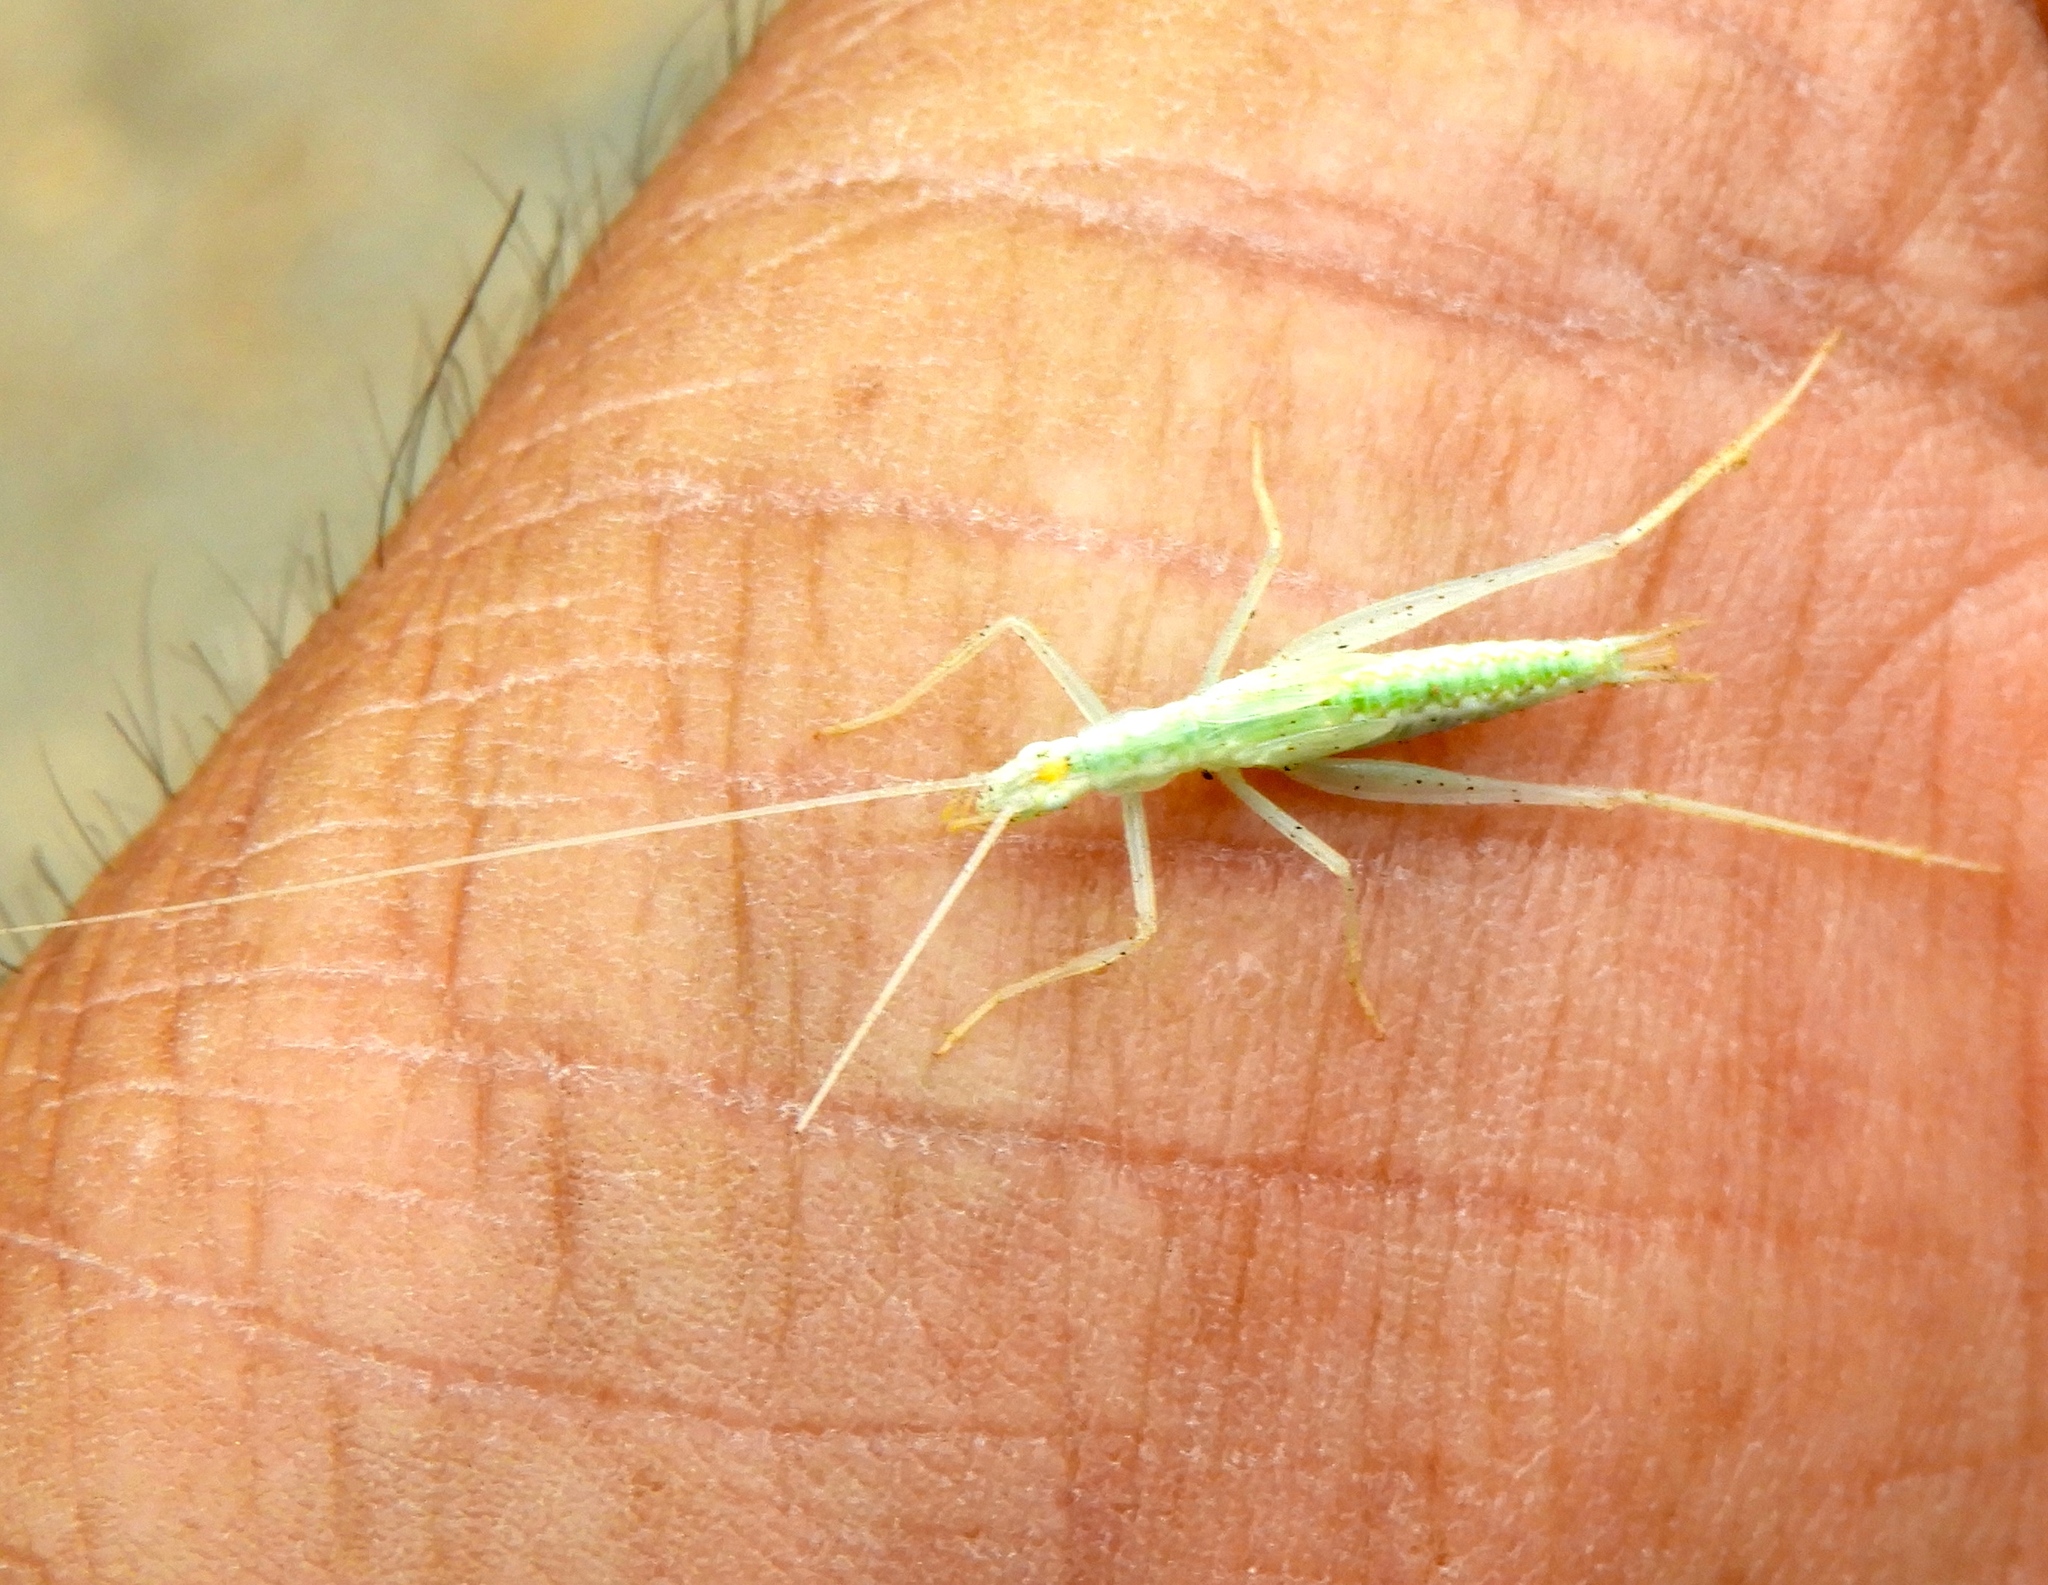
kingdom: Animalia
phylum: Arthropoda
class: Insecta
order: Orthoptera
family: Gryllidae
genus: Oecanthus
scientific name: Oecanthus
